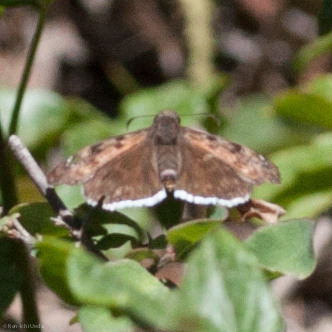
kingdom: Animalia
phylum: Arthropoda
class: Insecta
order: Lepidoptera
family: Hesperiidae
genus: Erynnis
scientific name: Erynnis tristis
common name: Mournful duskywing
